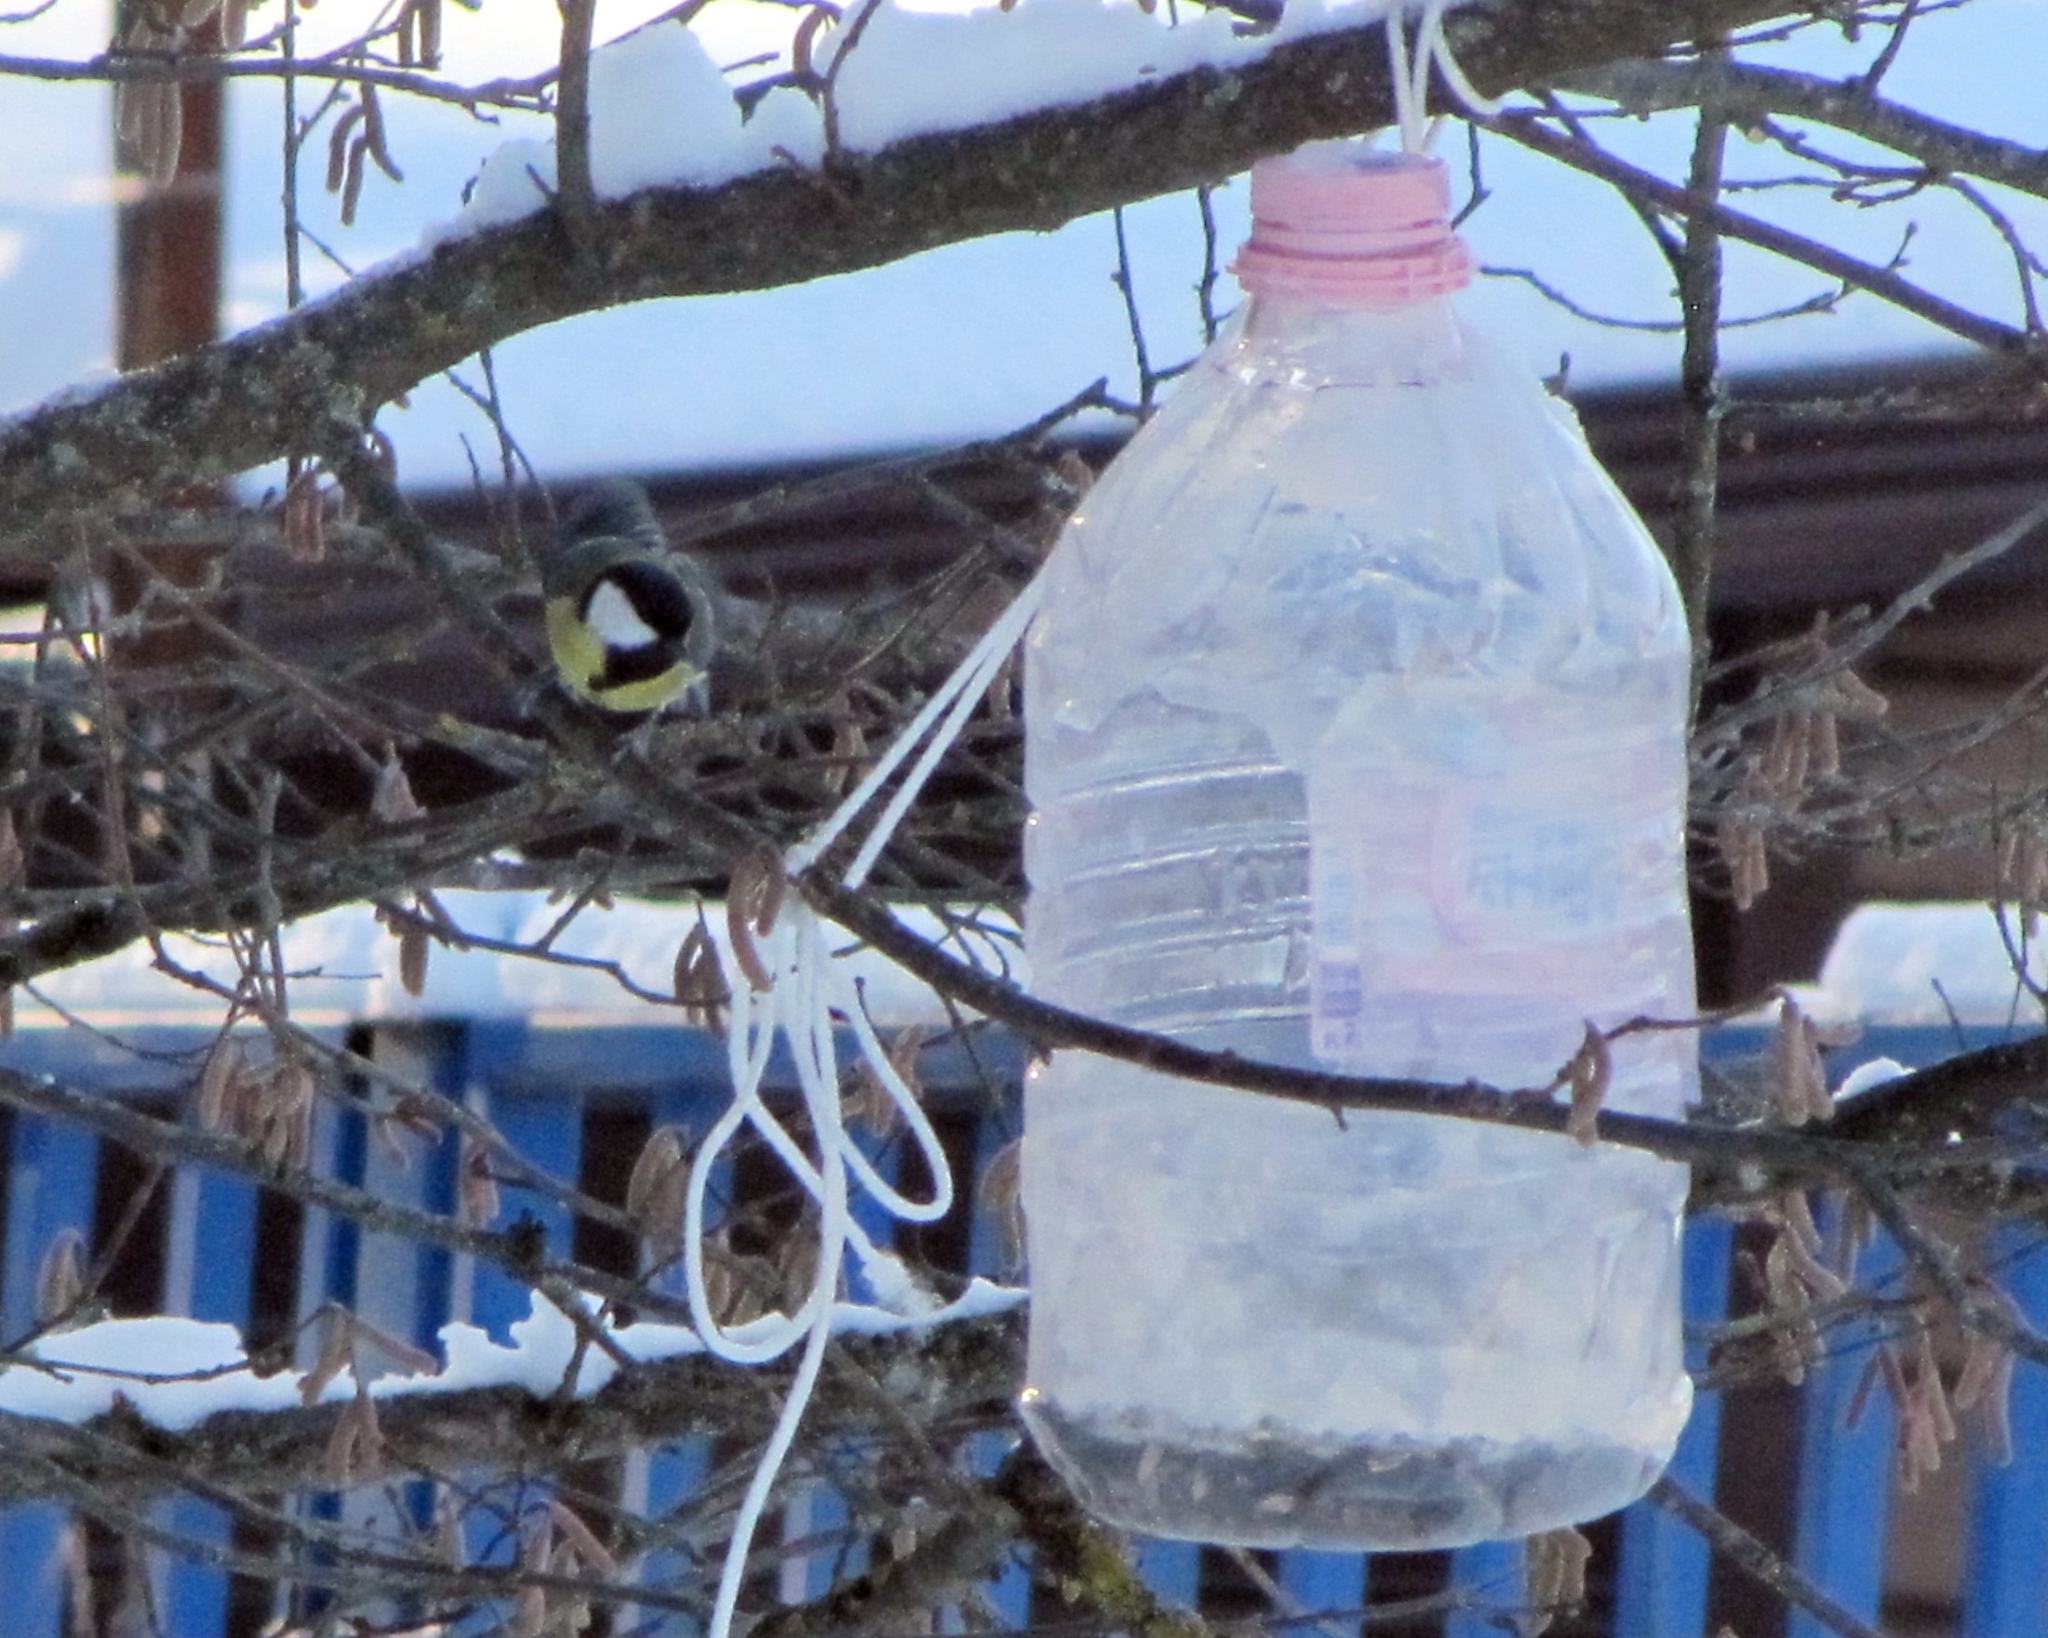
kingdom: Animalia
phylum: Chordata
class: Aves
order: Passeriformes
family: Paridae
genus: Parus
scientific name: Parus major
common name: Great tit
